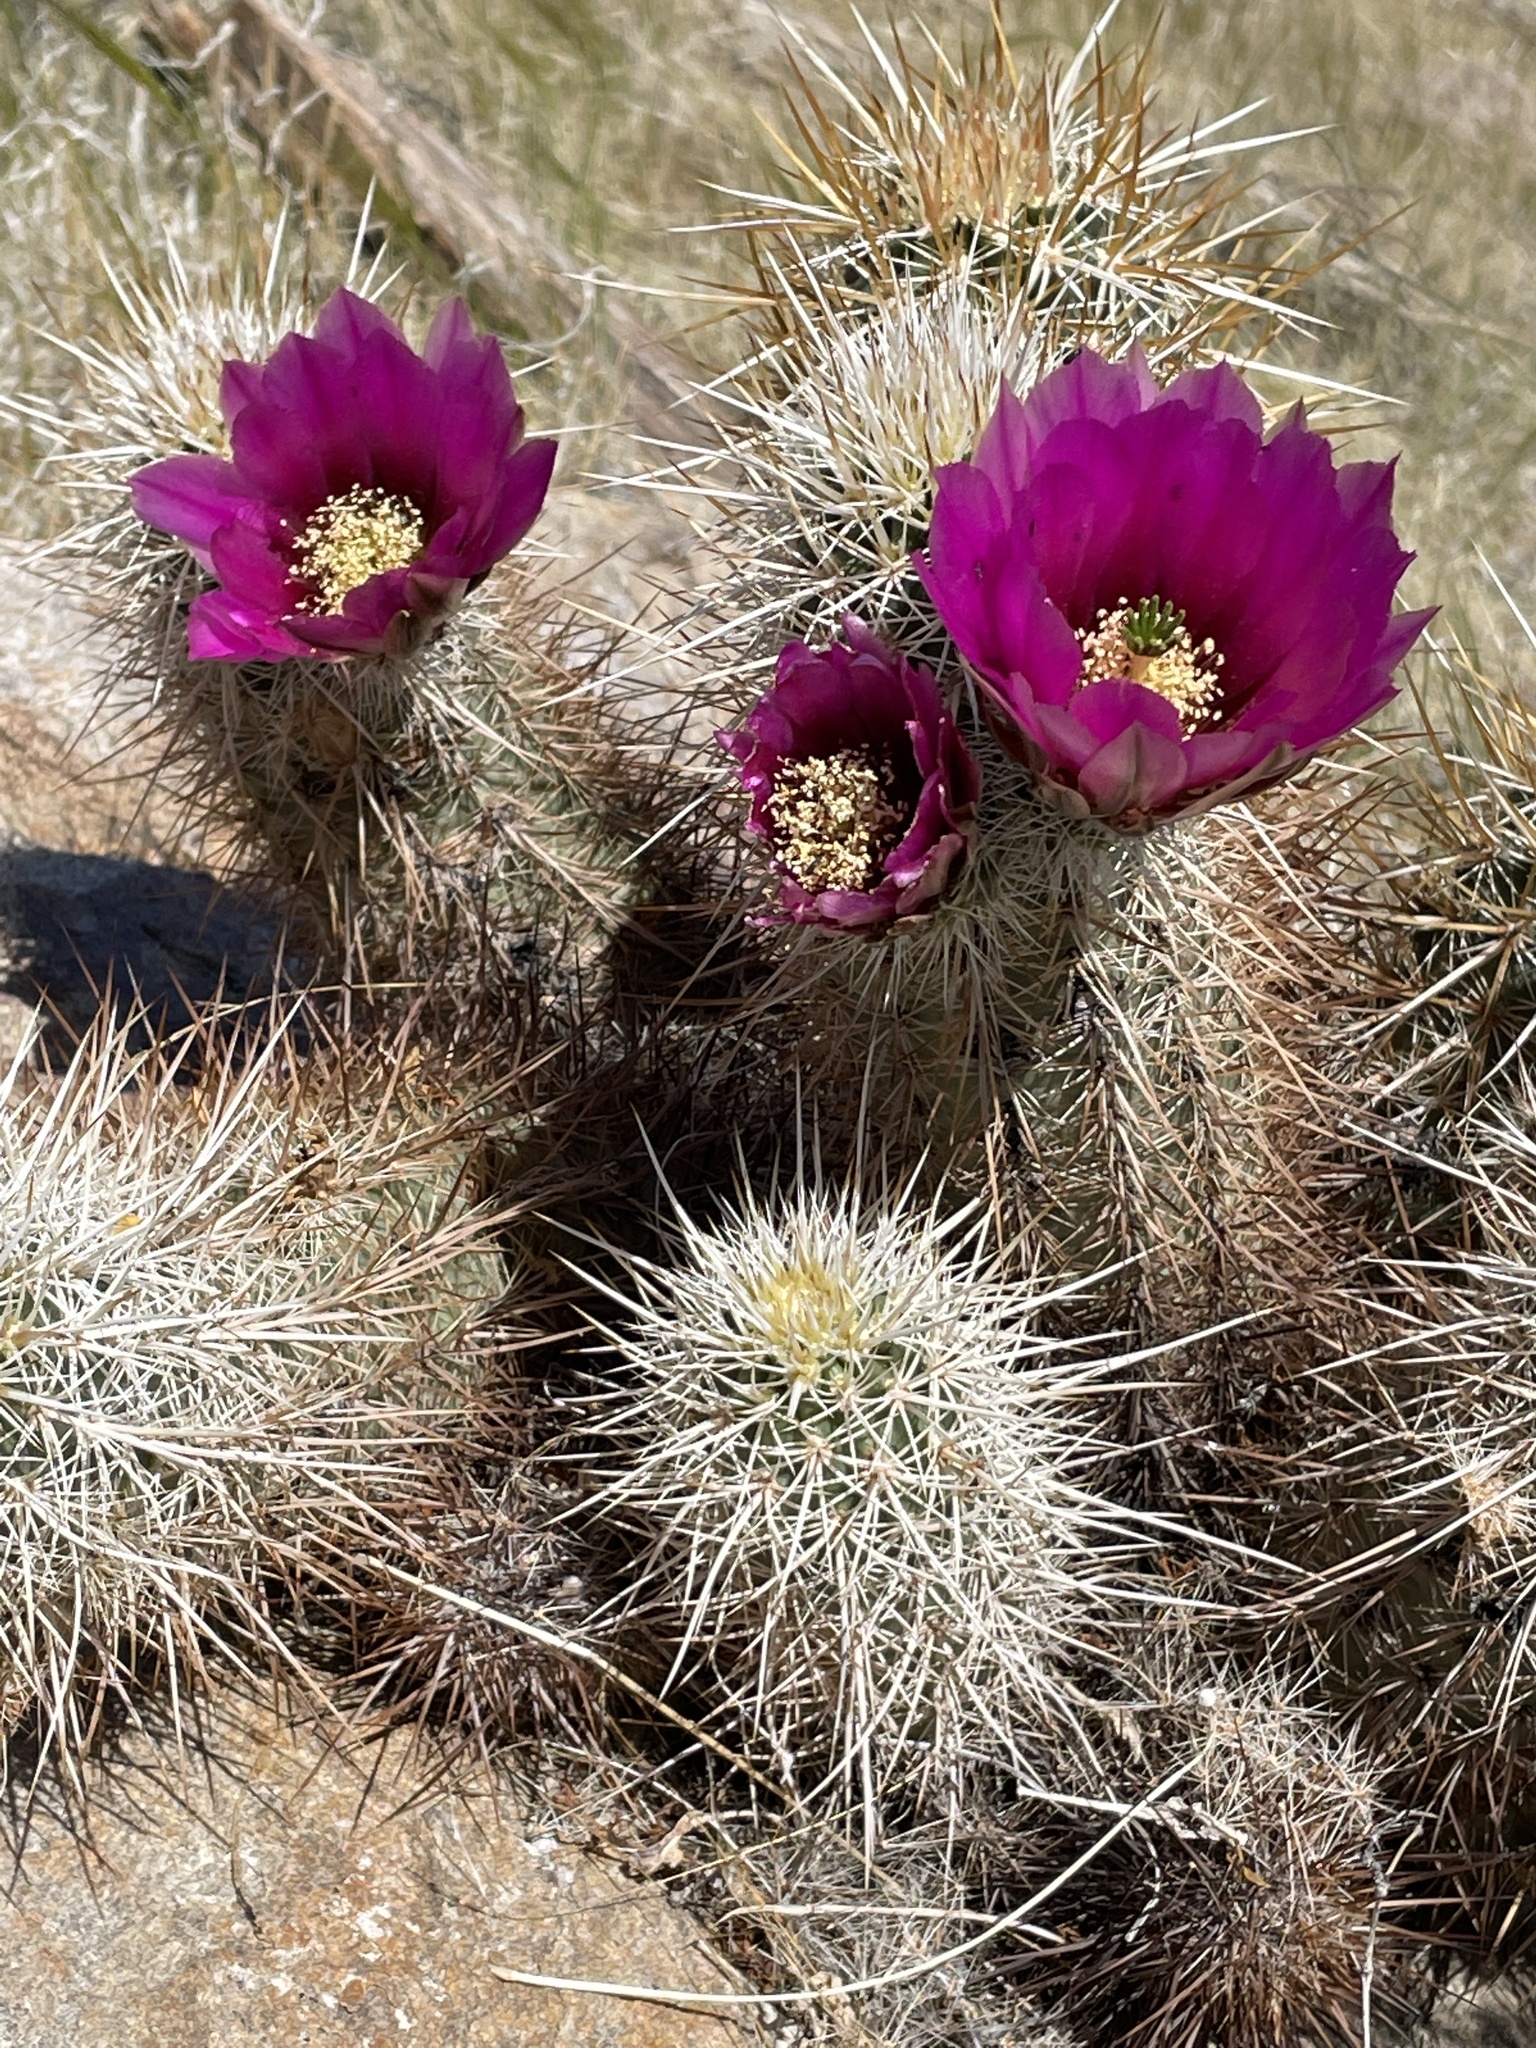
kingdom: Plantae
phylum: Tracheophyta
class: Magnoliopsida
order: Caryophyllales
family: Cactaceae
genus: Echinocereus
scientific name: Echinocereus engelmannii
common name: Engelmann's hedgehog cactus
